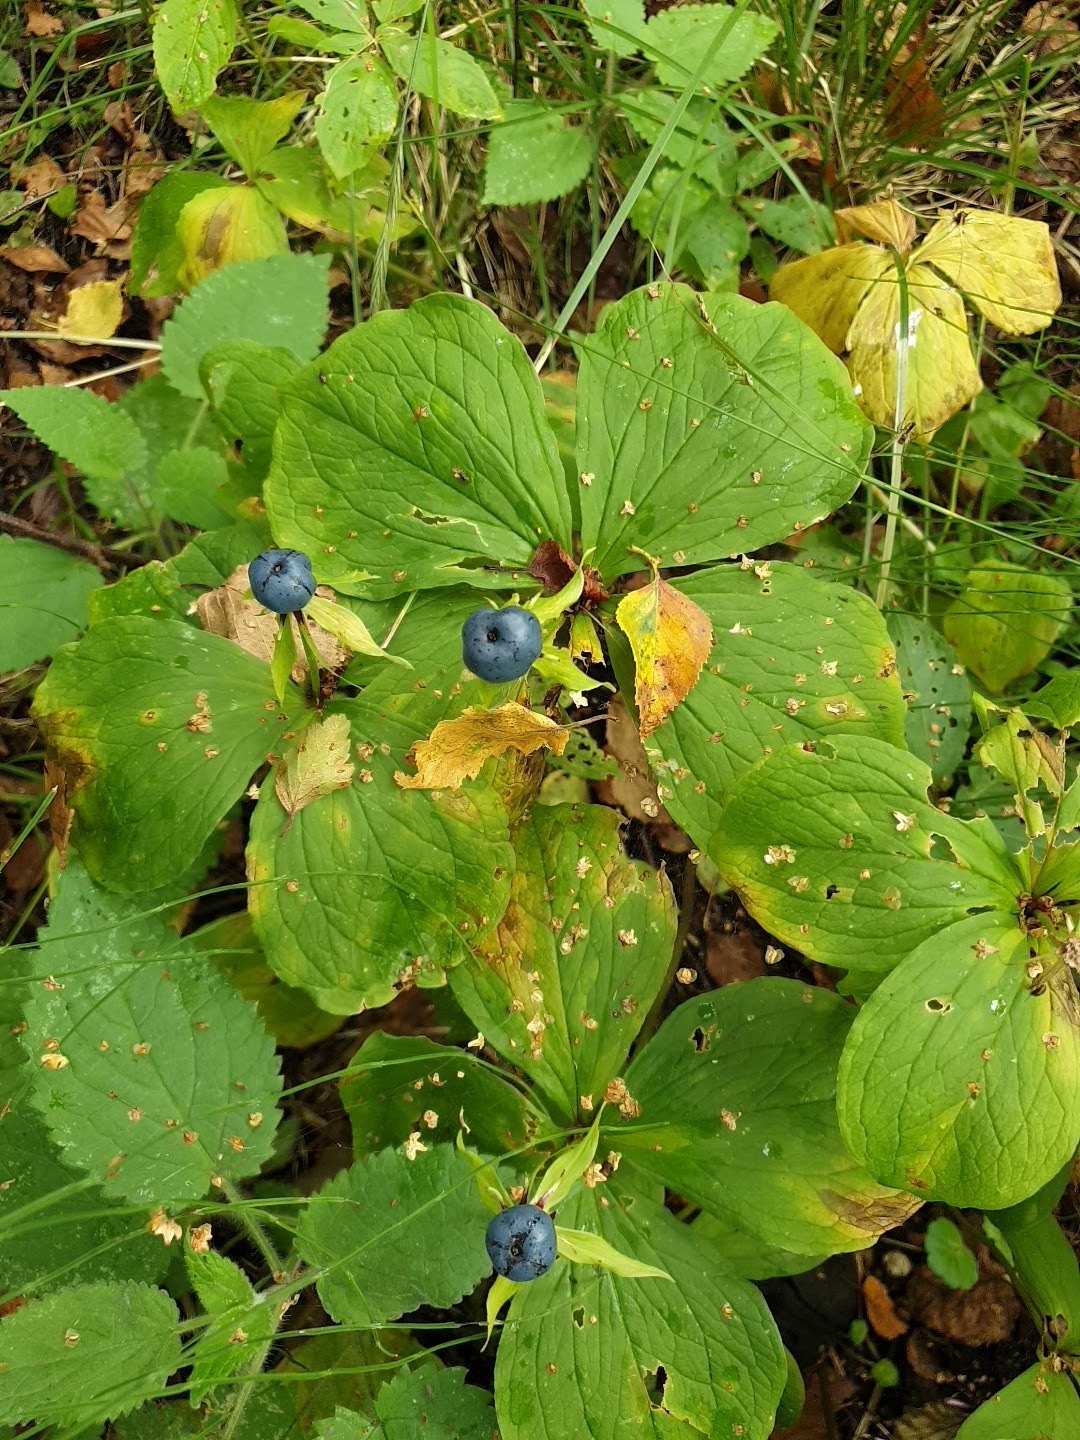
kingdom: Plantae
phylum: Tracheophyta
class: Liliopsida
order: Liliales
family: Melanthiaceae
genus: Paris
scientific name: Paris quadrifolia
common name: Herb-paris
